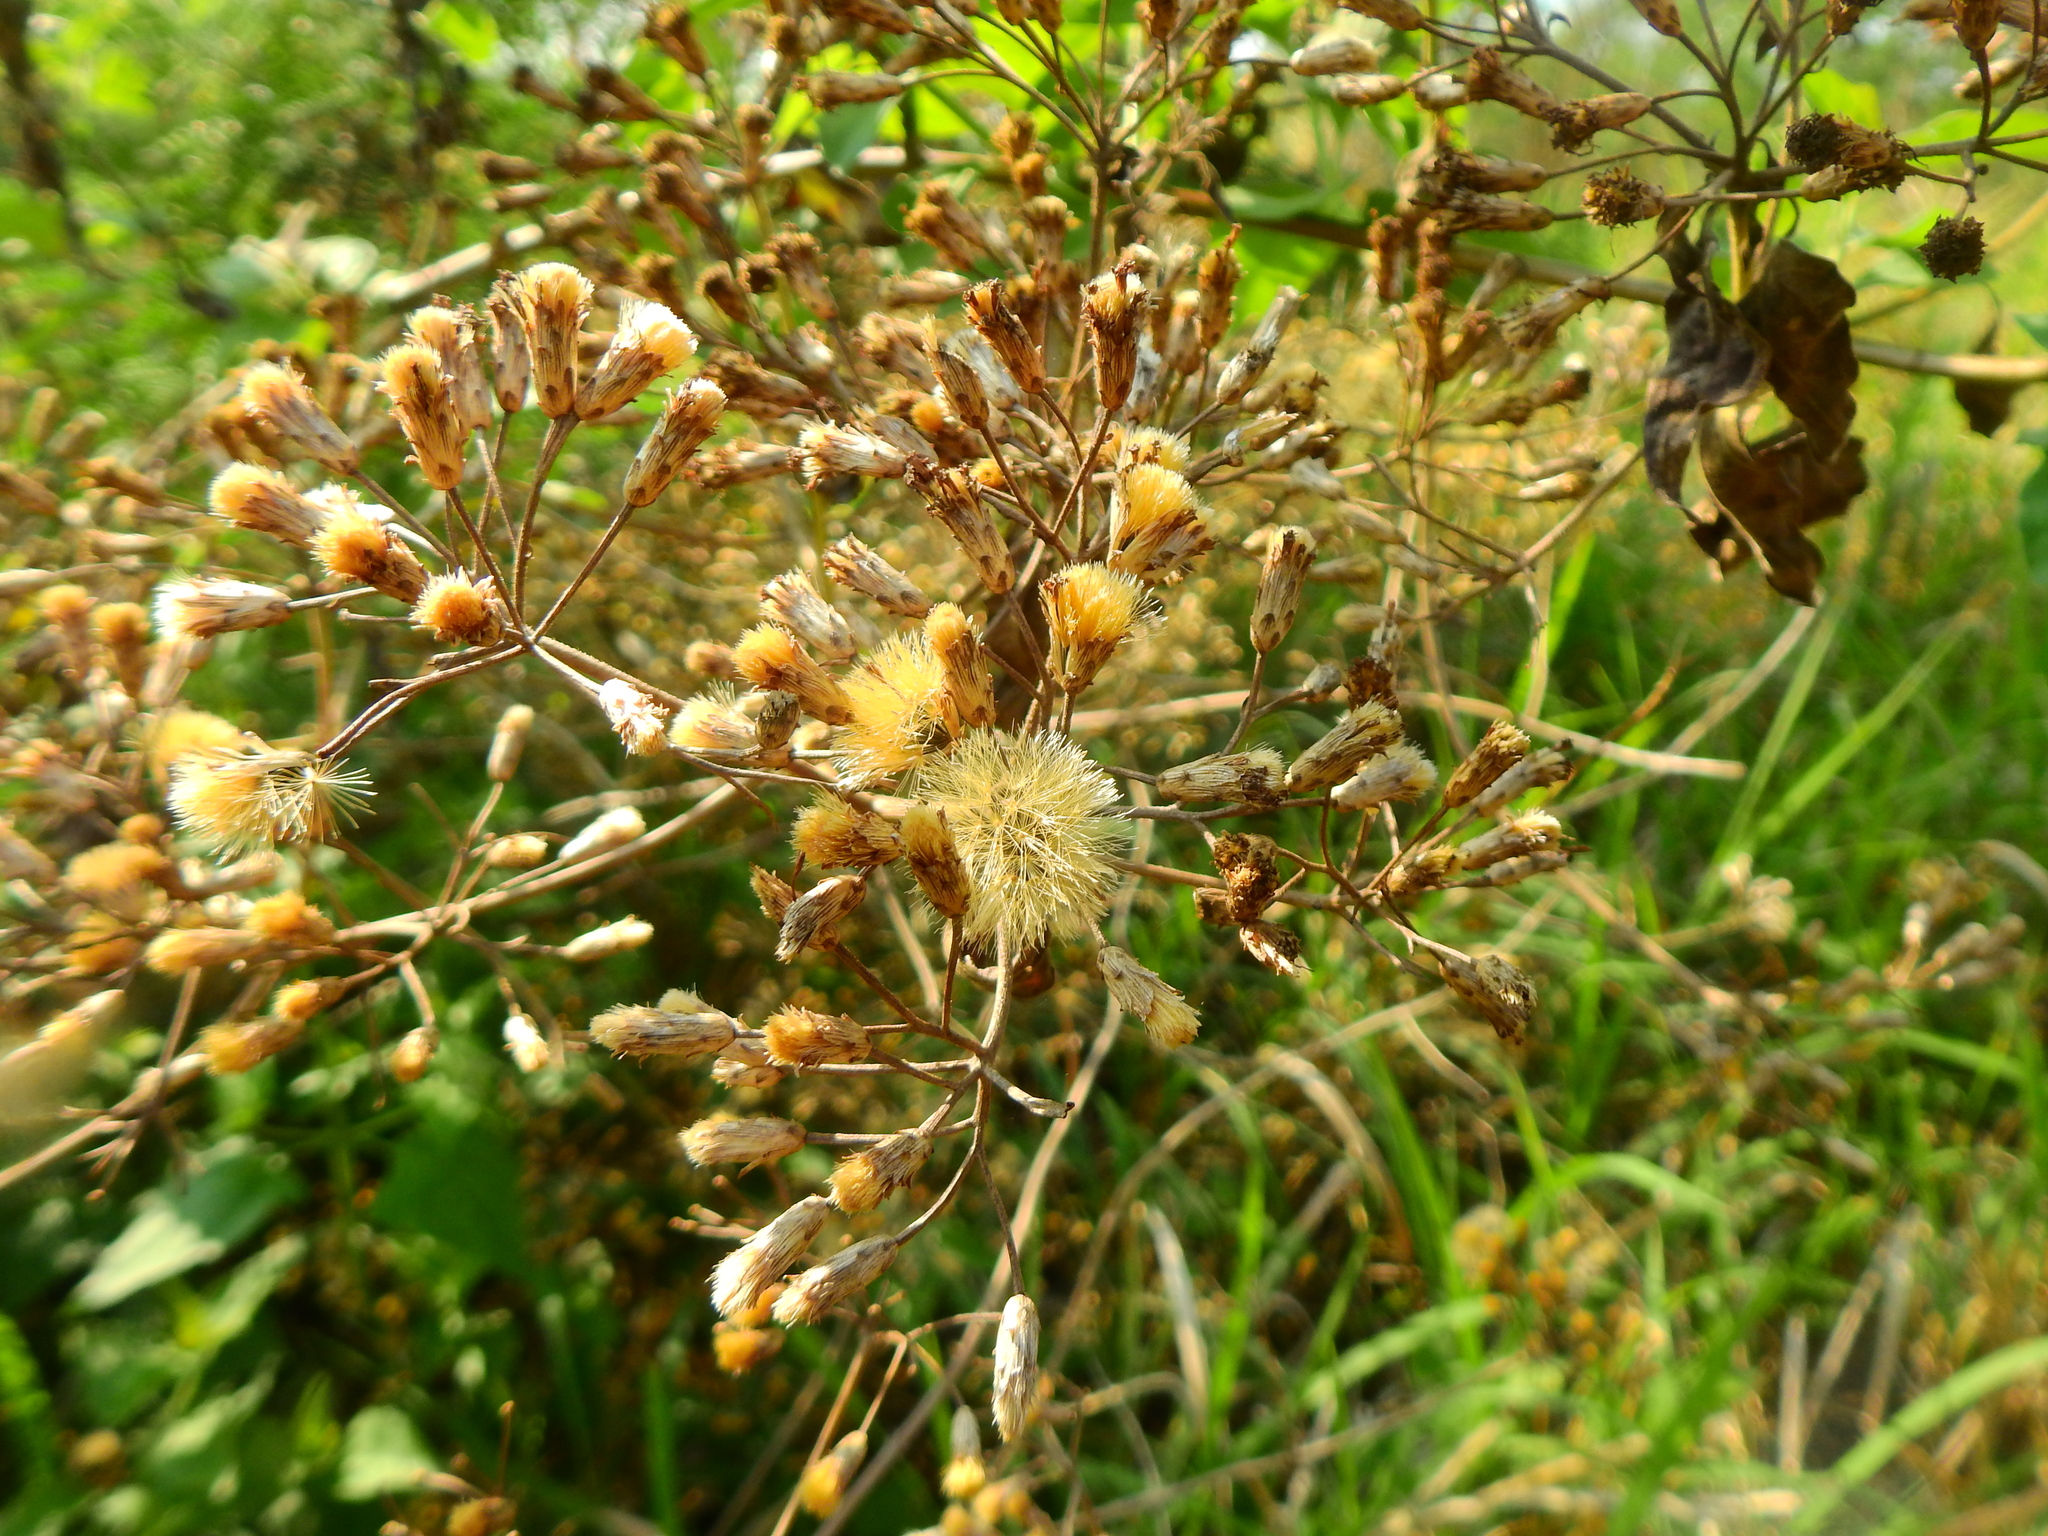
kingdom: Plantae
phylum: Tracheophyta
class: Magnoliopsida
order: Asterales
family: Asteraceae
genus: Chromolaena
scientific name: Chromolaena odorata
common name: Siamweed
